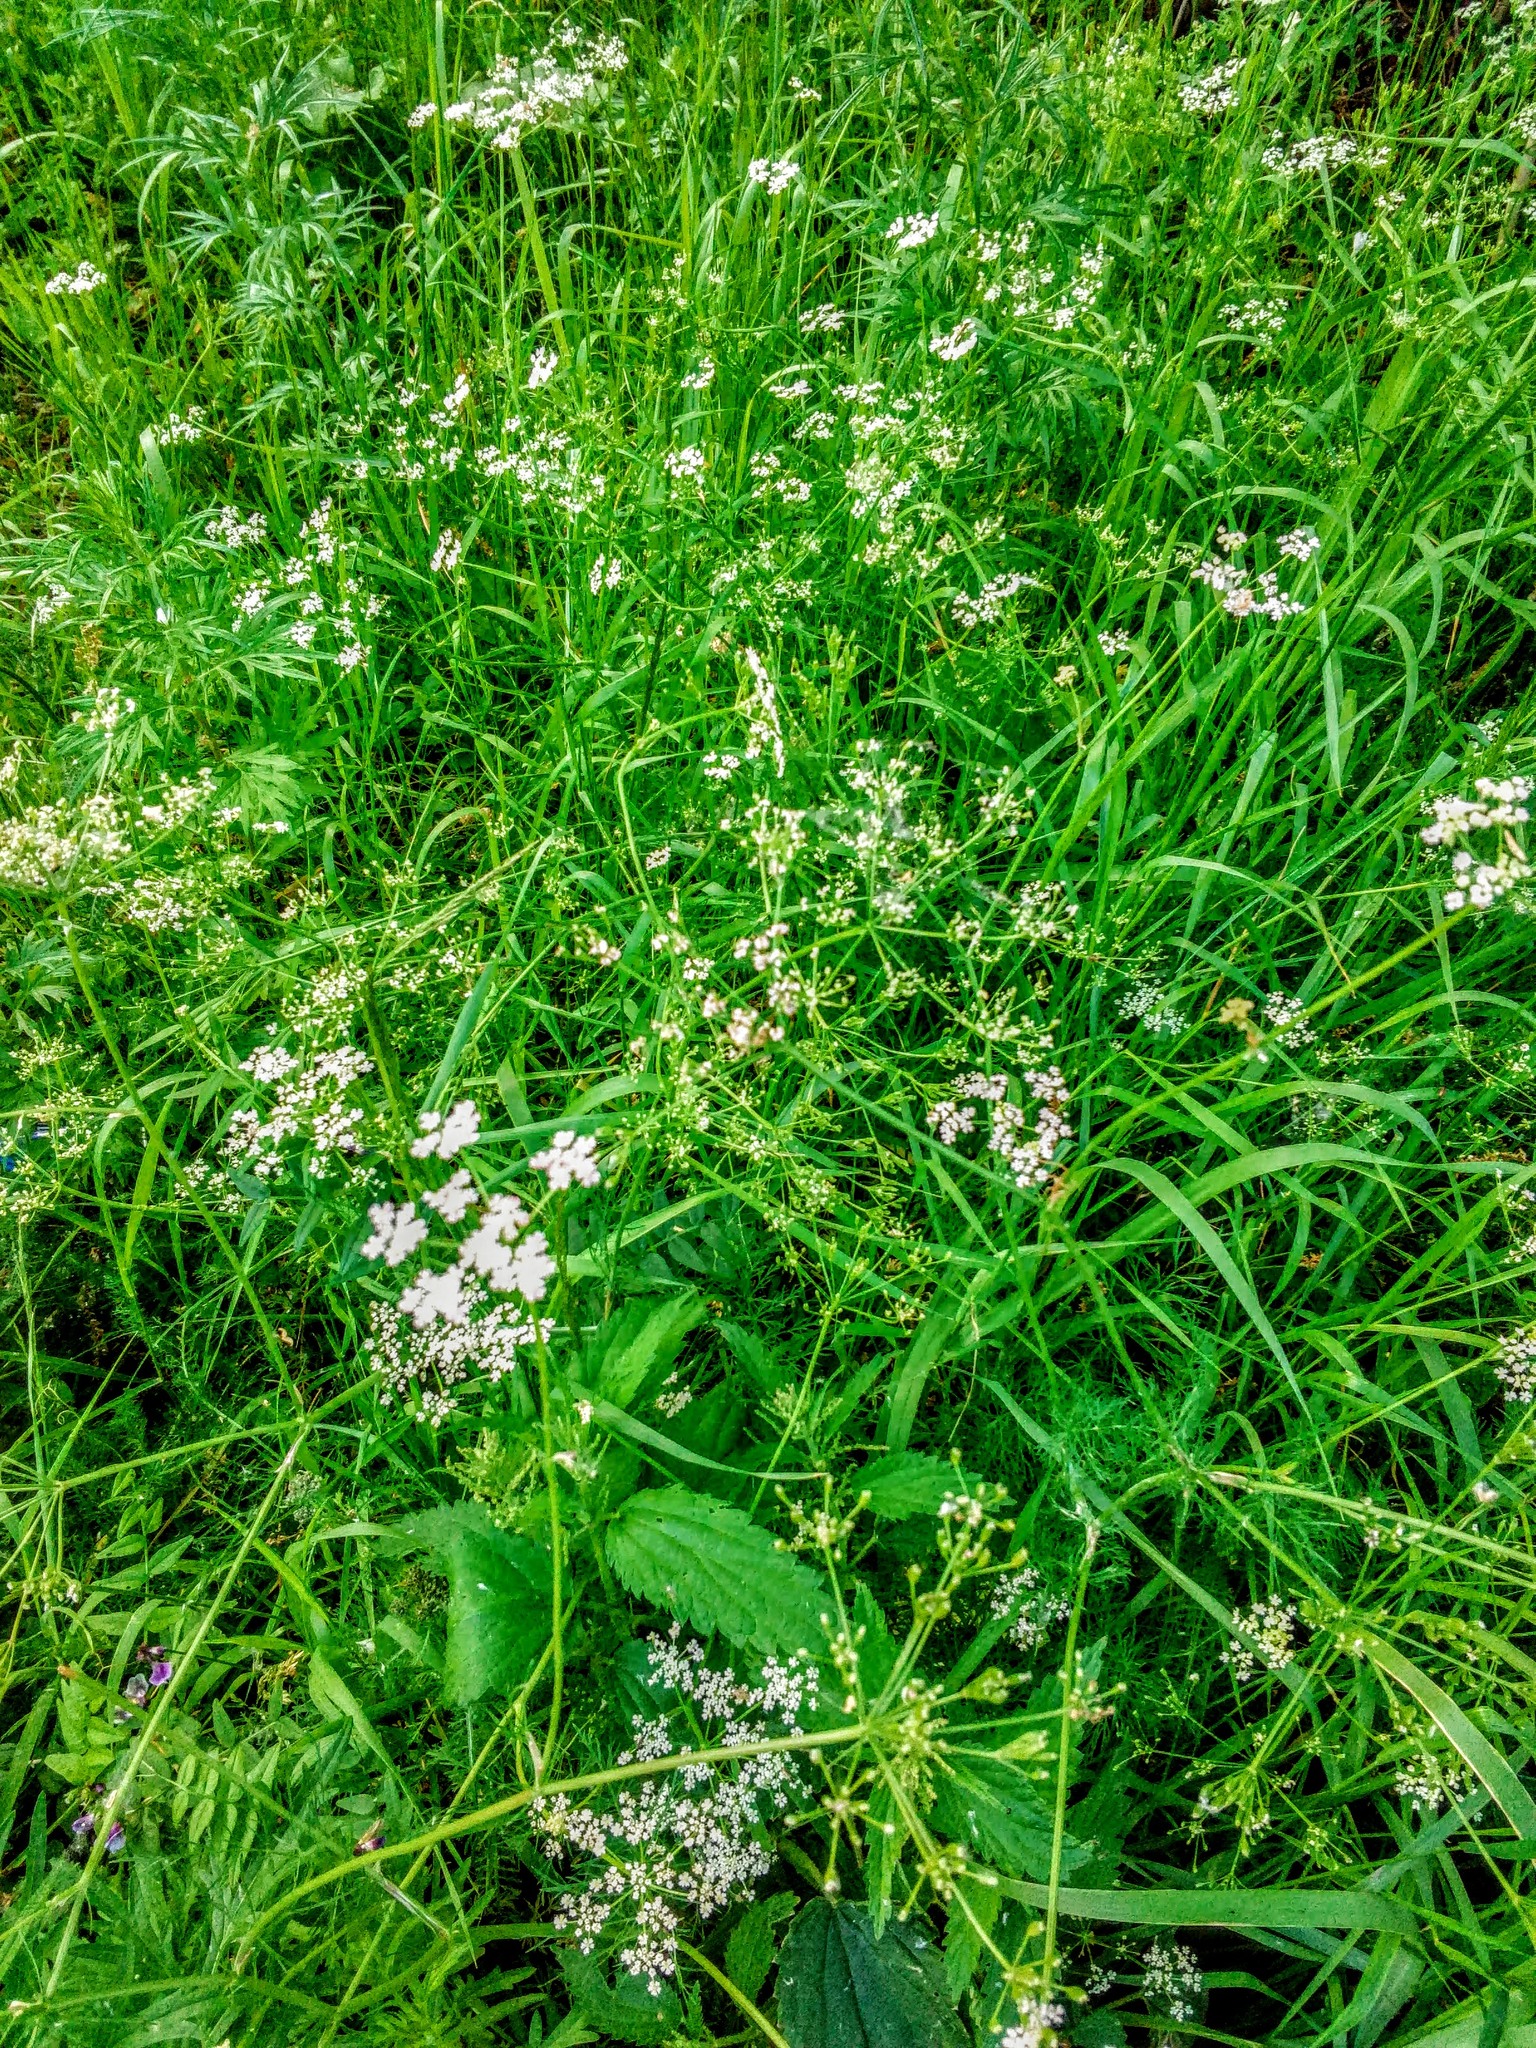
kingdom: Plantae
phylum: Tracheophyta
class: Magnoliopsida
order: Apiales
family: Apiaceae
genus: Carum
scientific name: Carum carvi
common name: Caraway
